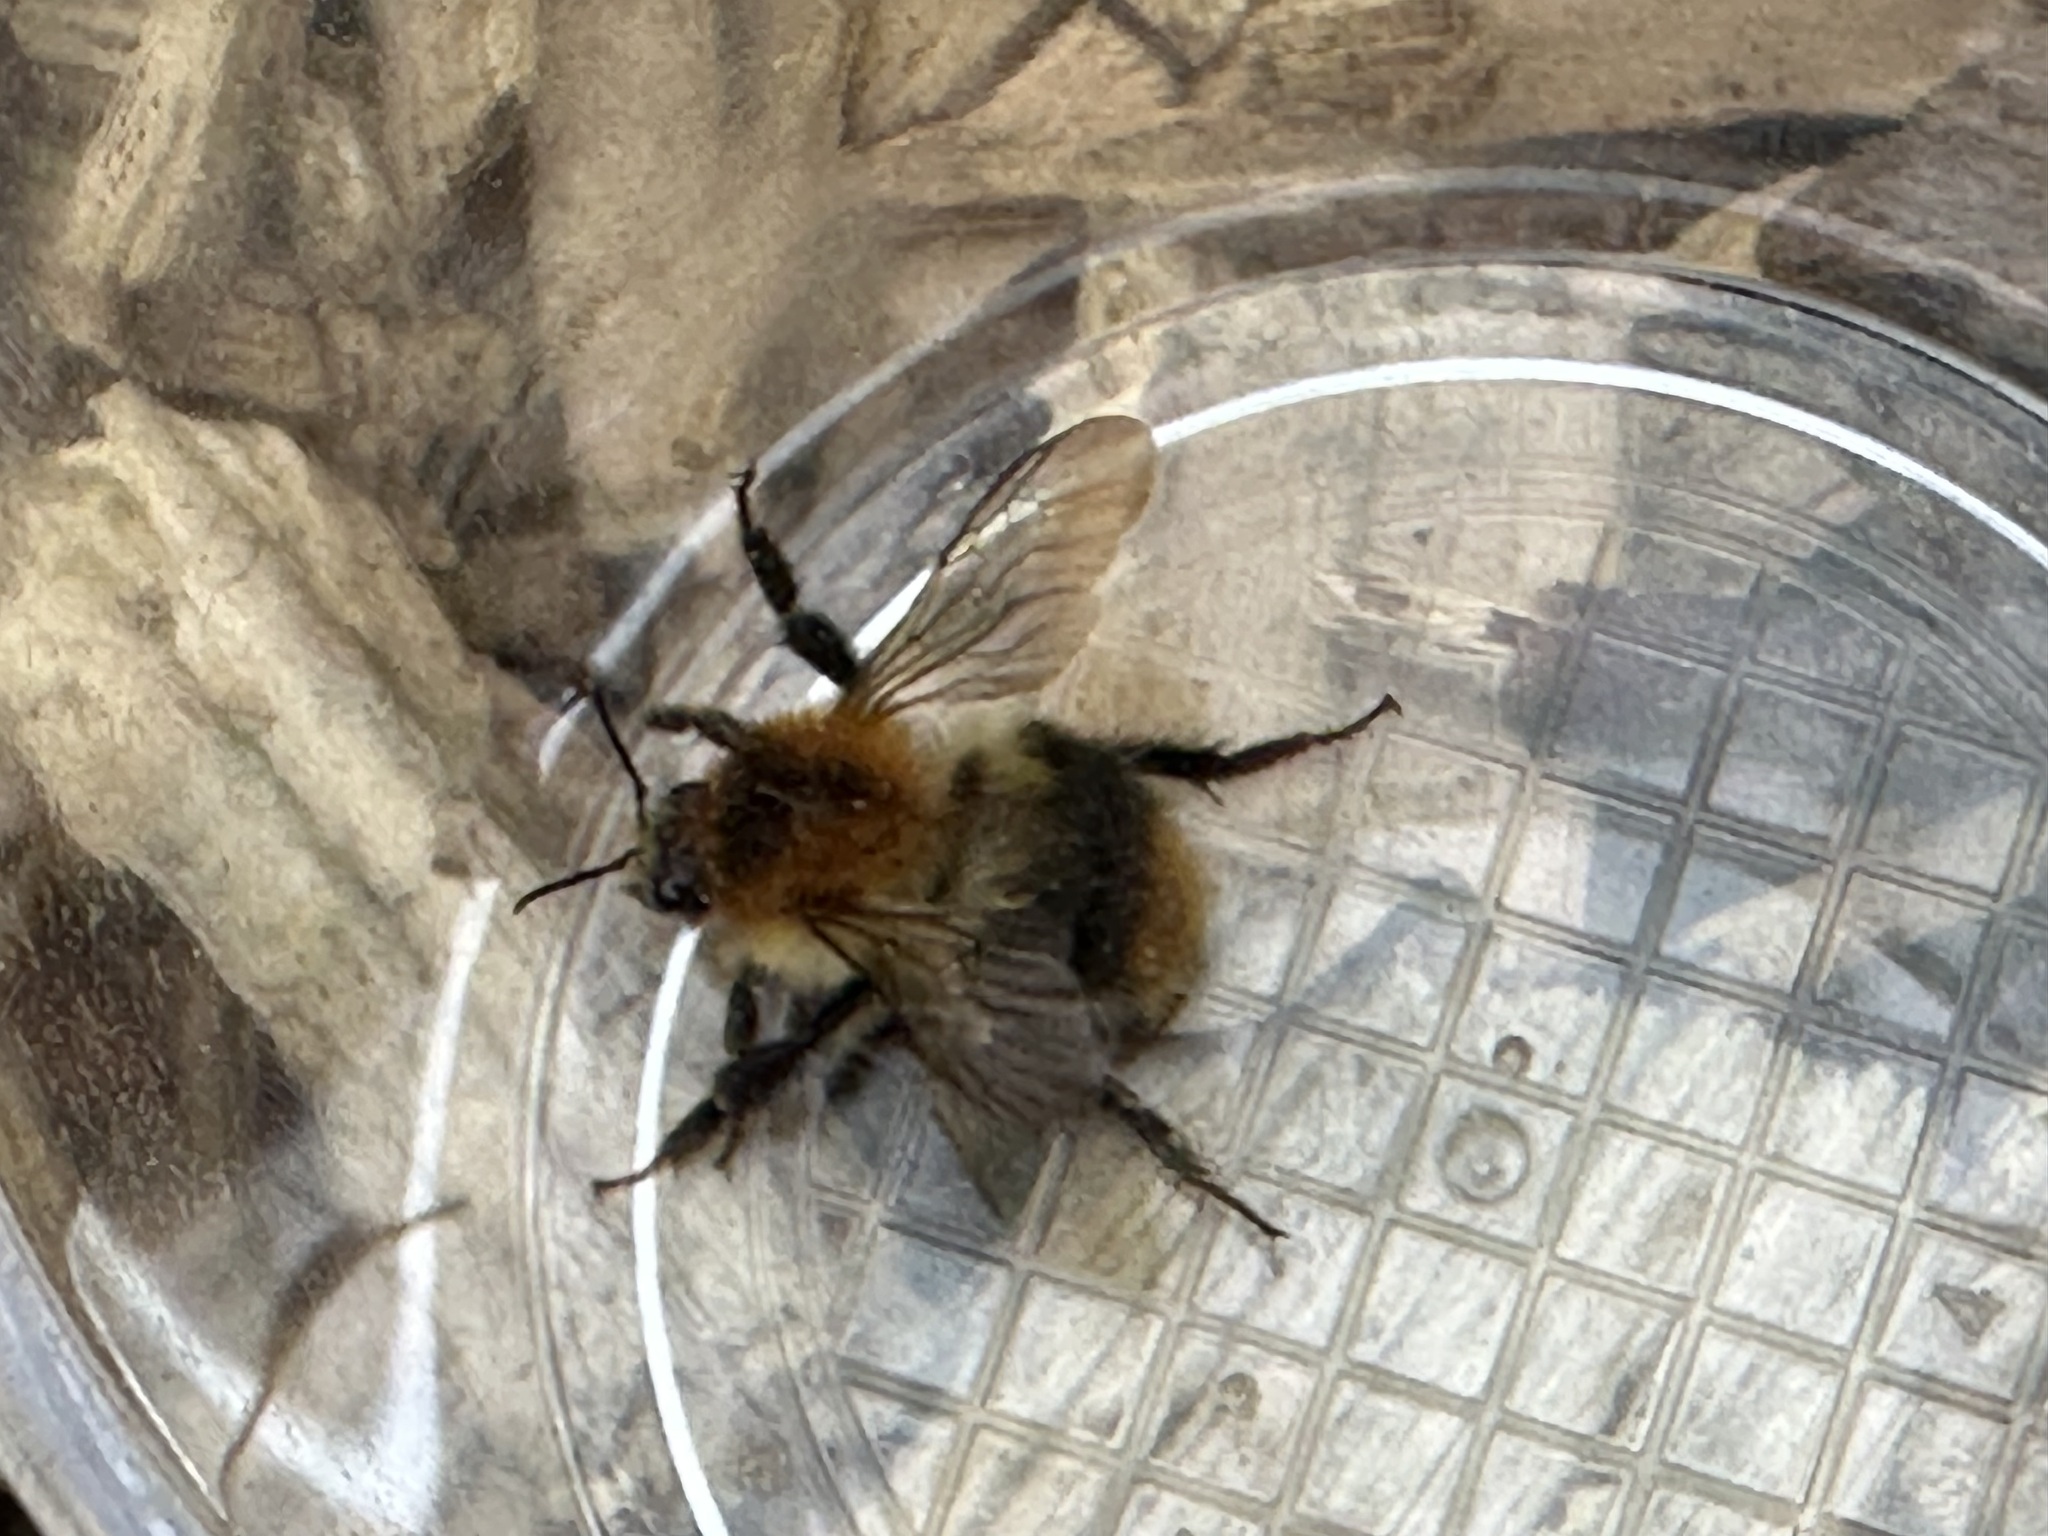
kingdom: Animalia
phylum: Arthropoda
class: Insecta
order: Hymenoptera
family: Apidae
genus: Bombus
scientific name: Bombus pascuorum
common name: Common carder bee
